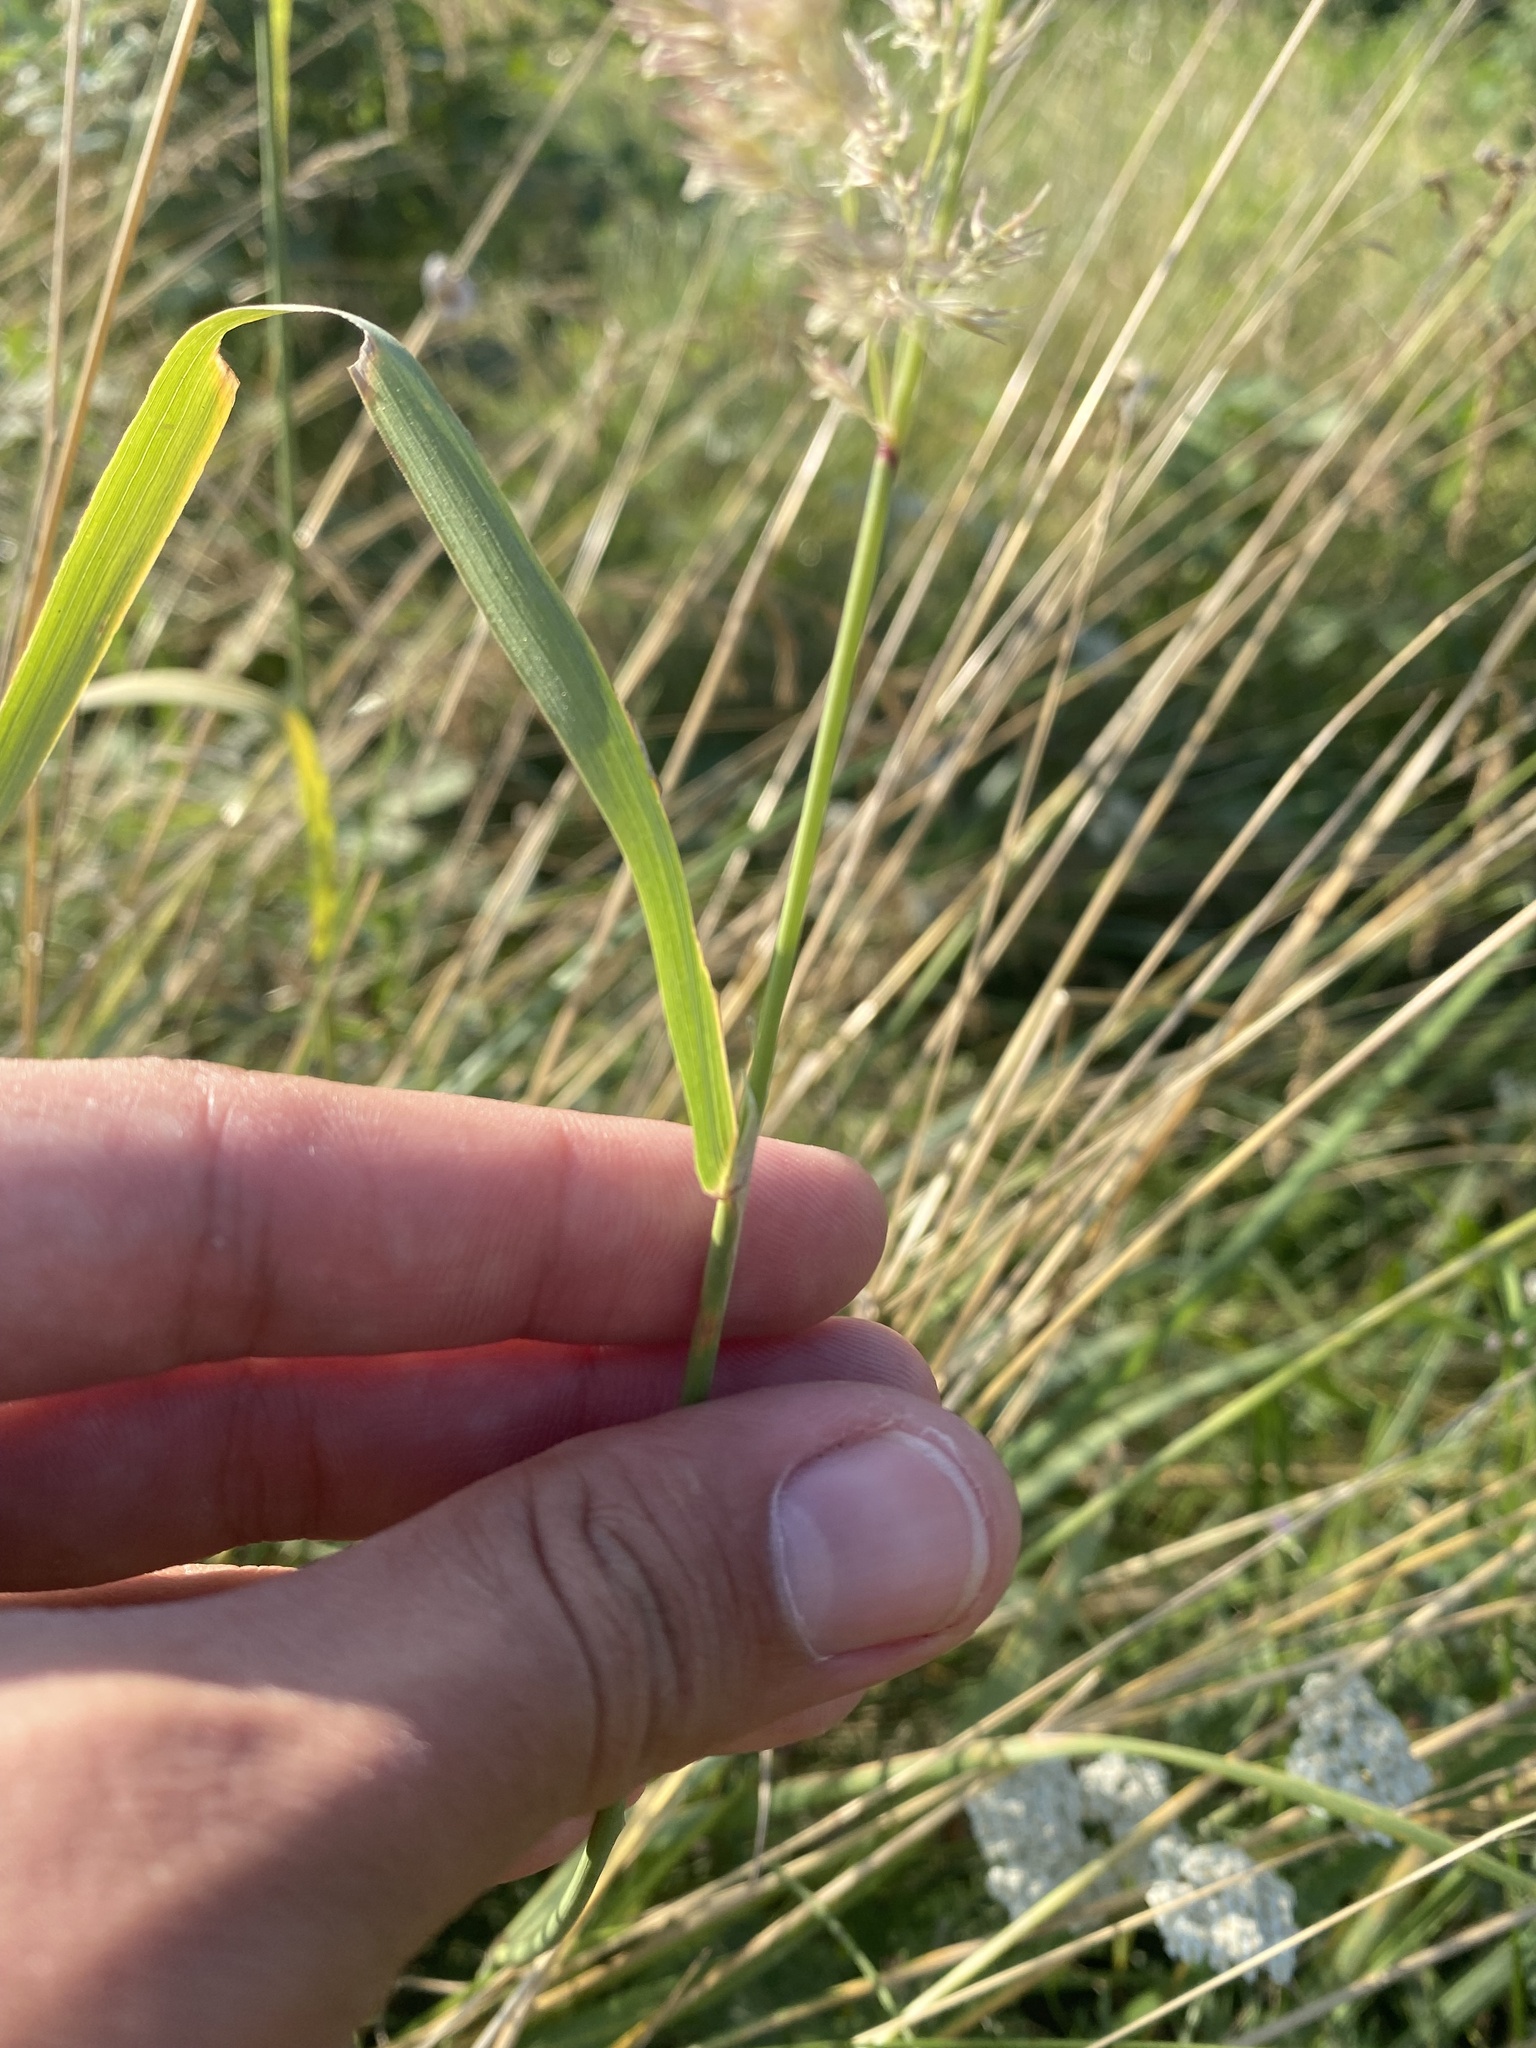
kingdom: Plantae
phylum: Tracheophyta
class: Liliopsida
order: Poales
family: Poaceae
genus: Calamagrostis
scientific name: Calamagrostis epigejos
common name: Wood small-reed
